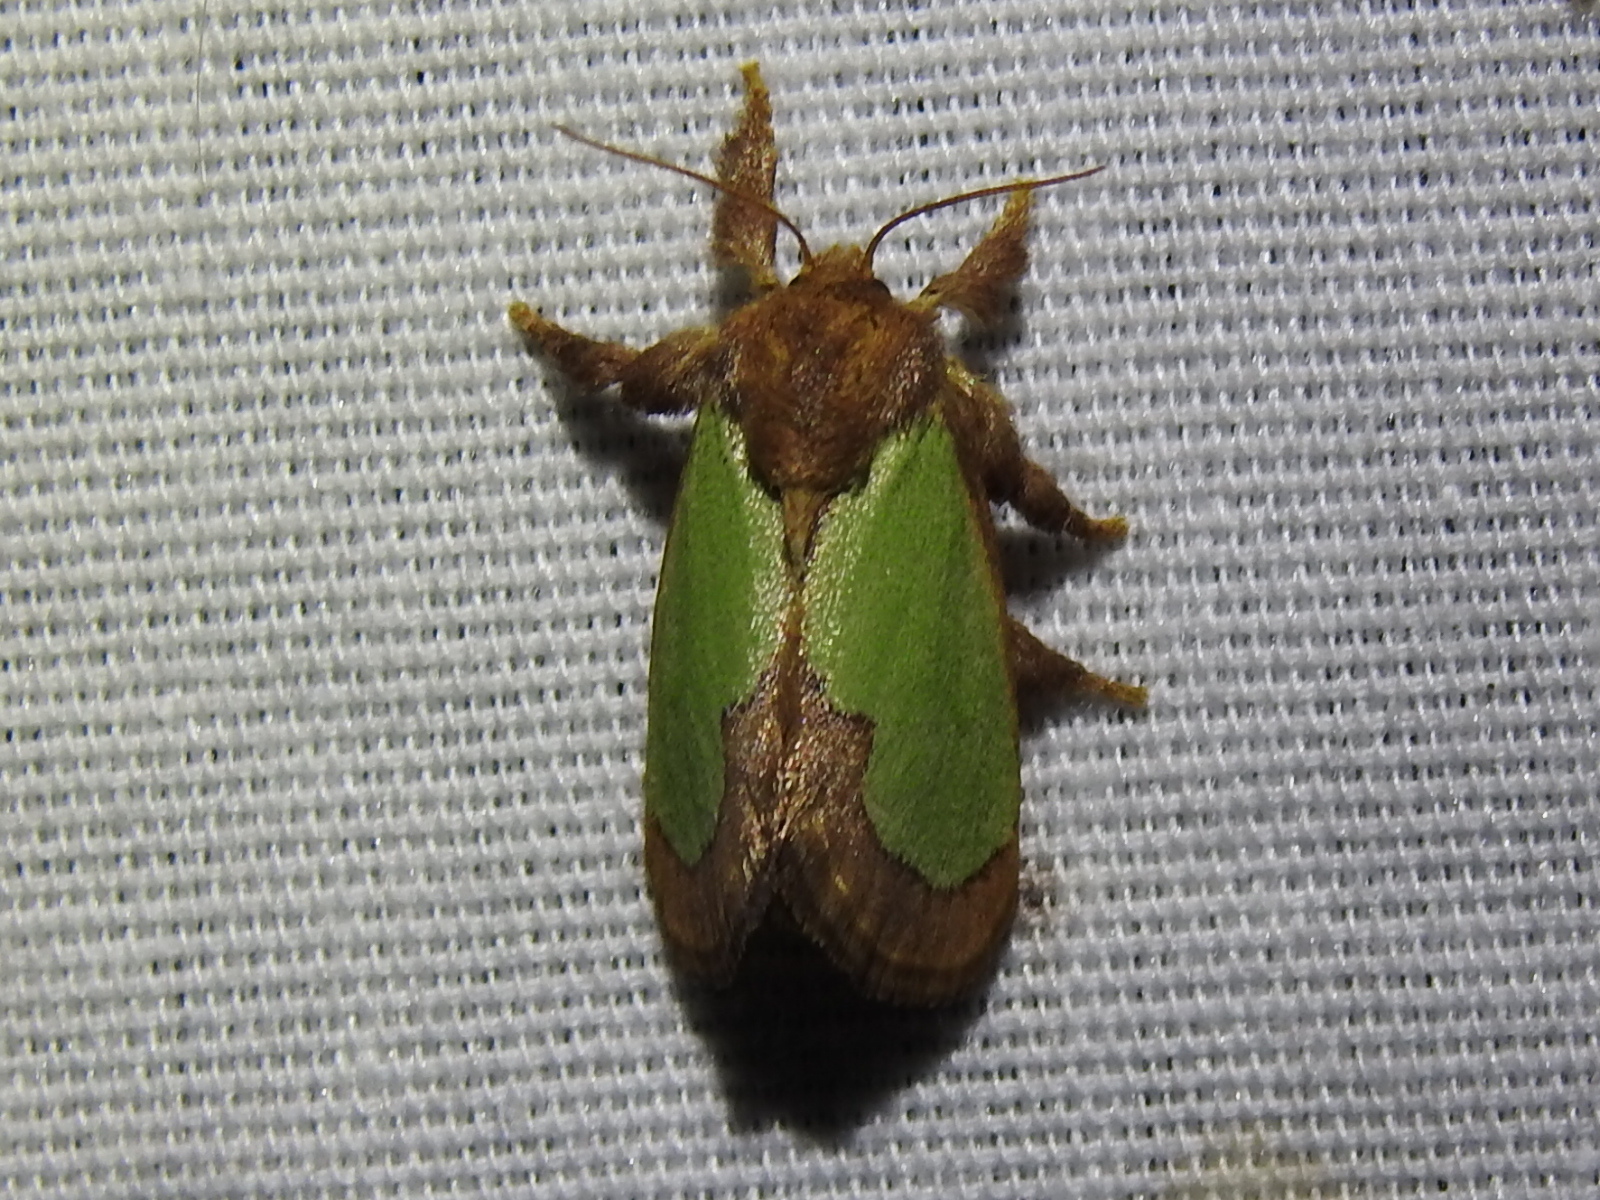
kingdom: Animalia
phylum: Arthropoda
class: Insecta
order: Lepidoptera
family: Limacodidae
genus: Euclea
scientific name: Euclea incisa
